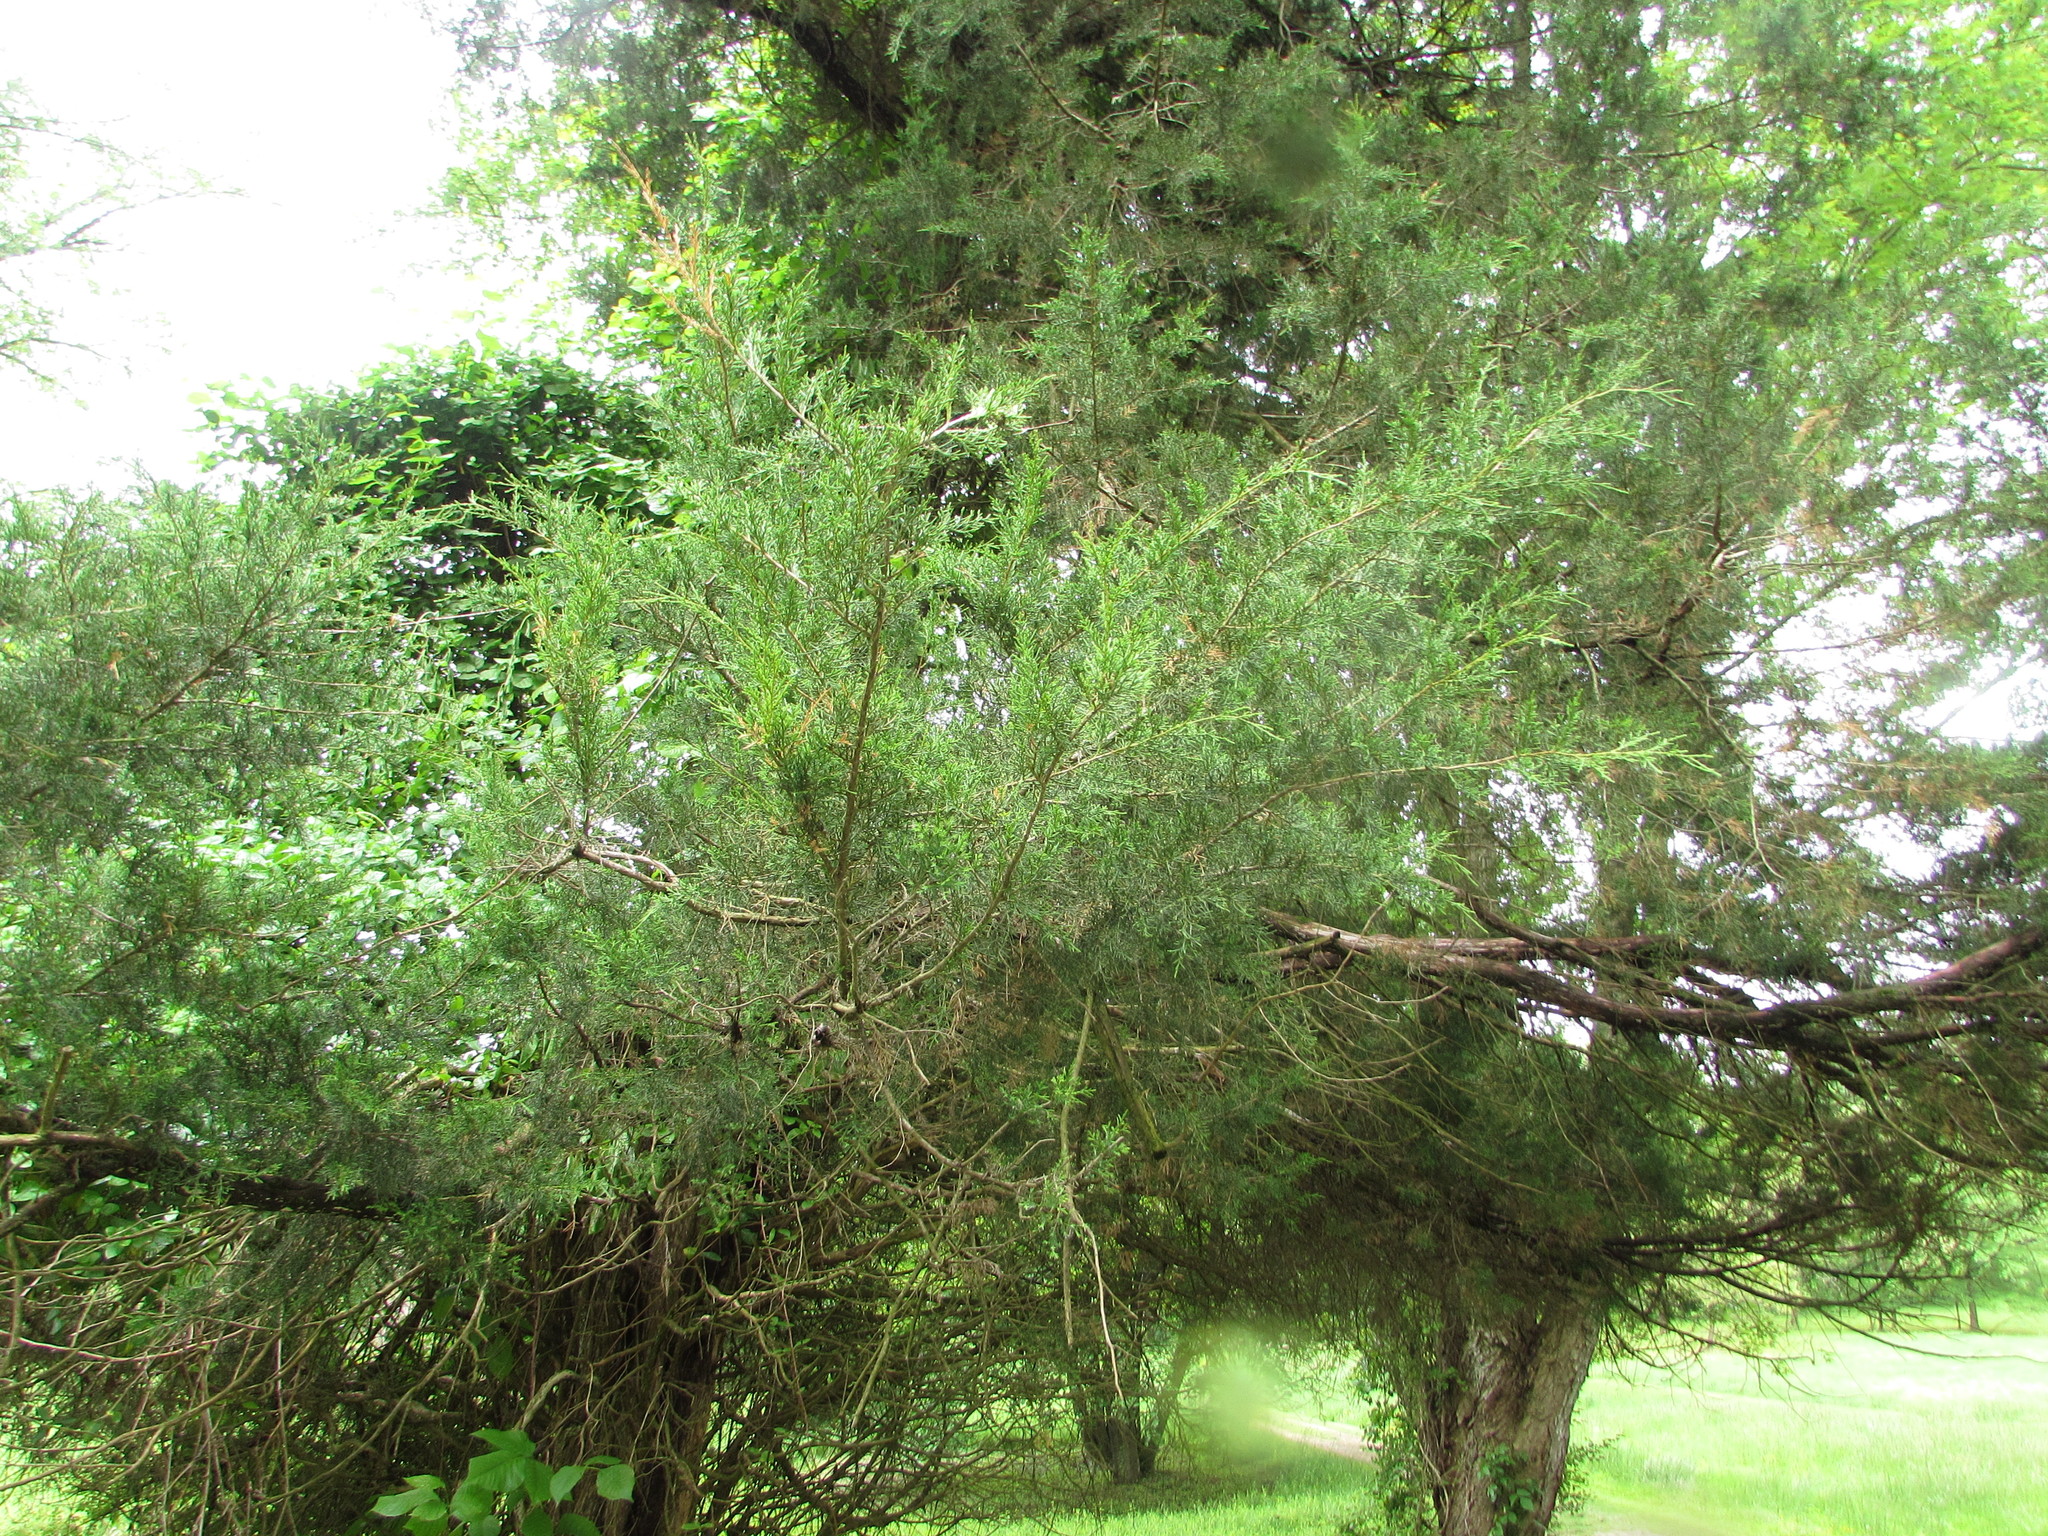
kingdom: Plantae
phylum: Tracheophyta
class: Pinopsida
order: Pinales
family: Cupressaceae
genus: Juniperus
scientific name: Juniperus virginiana
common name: Red juniper
